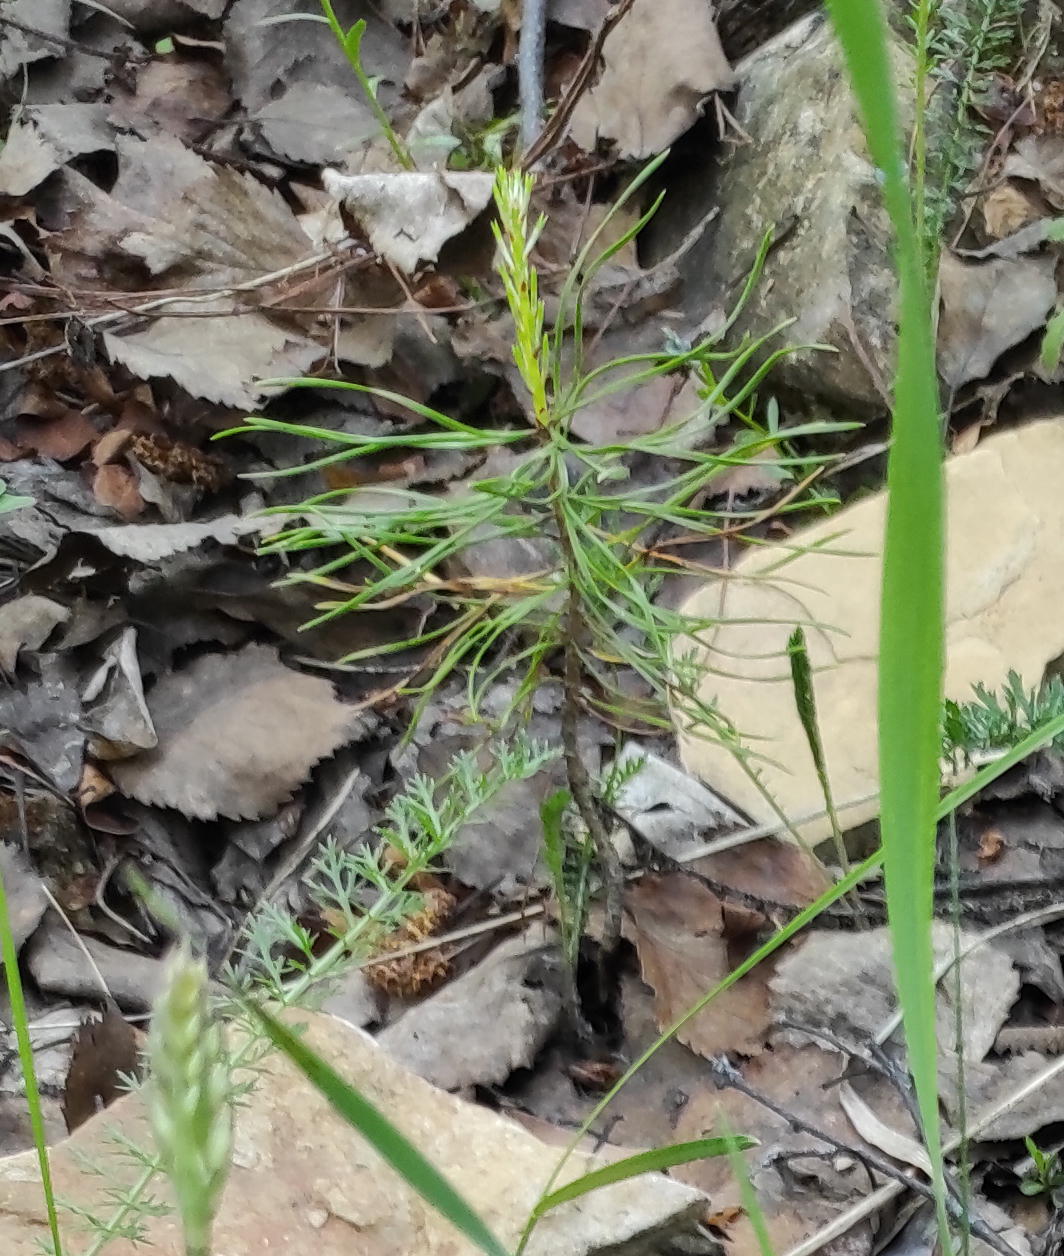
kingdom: Plantae
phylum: Tracheophyta
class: Pinopsida
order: Pinales
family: Pinaceae
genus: Pinus
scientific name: Pinus sylvestris
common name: Scots pine
